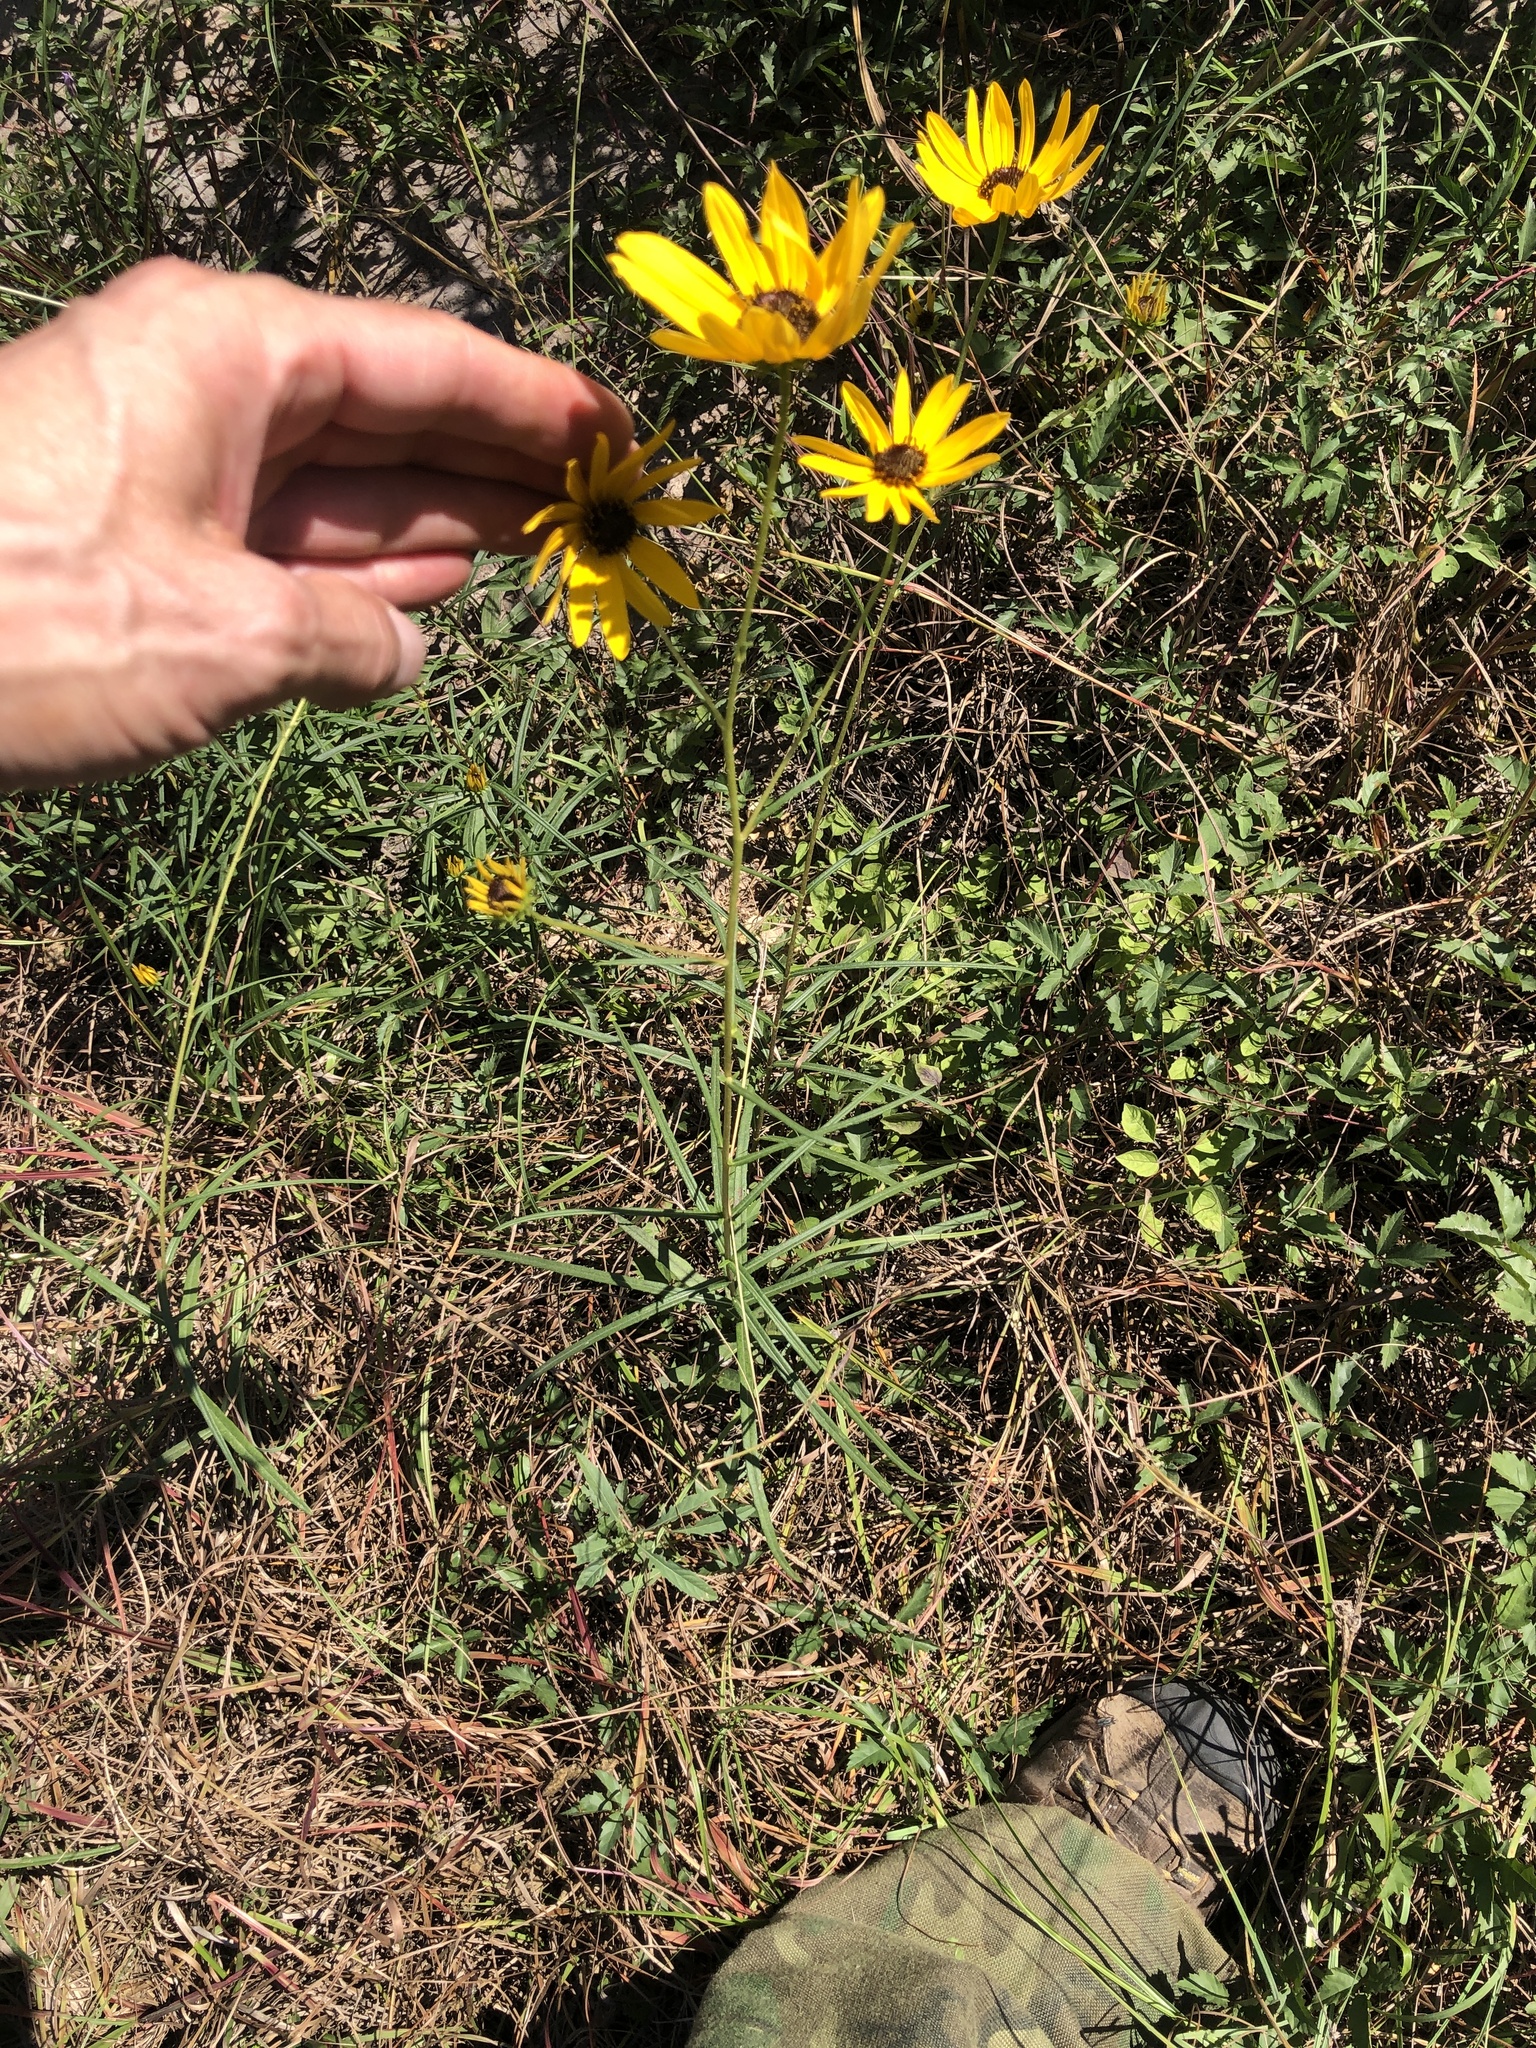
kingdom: Plantae
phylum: Tracheophyta
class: Magnoliopsida
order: Asterales
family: Asteraceae
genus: Helianthus
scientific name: Helianthus angustifolius
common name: Swamp sunflower
